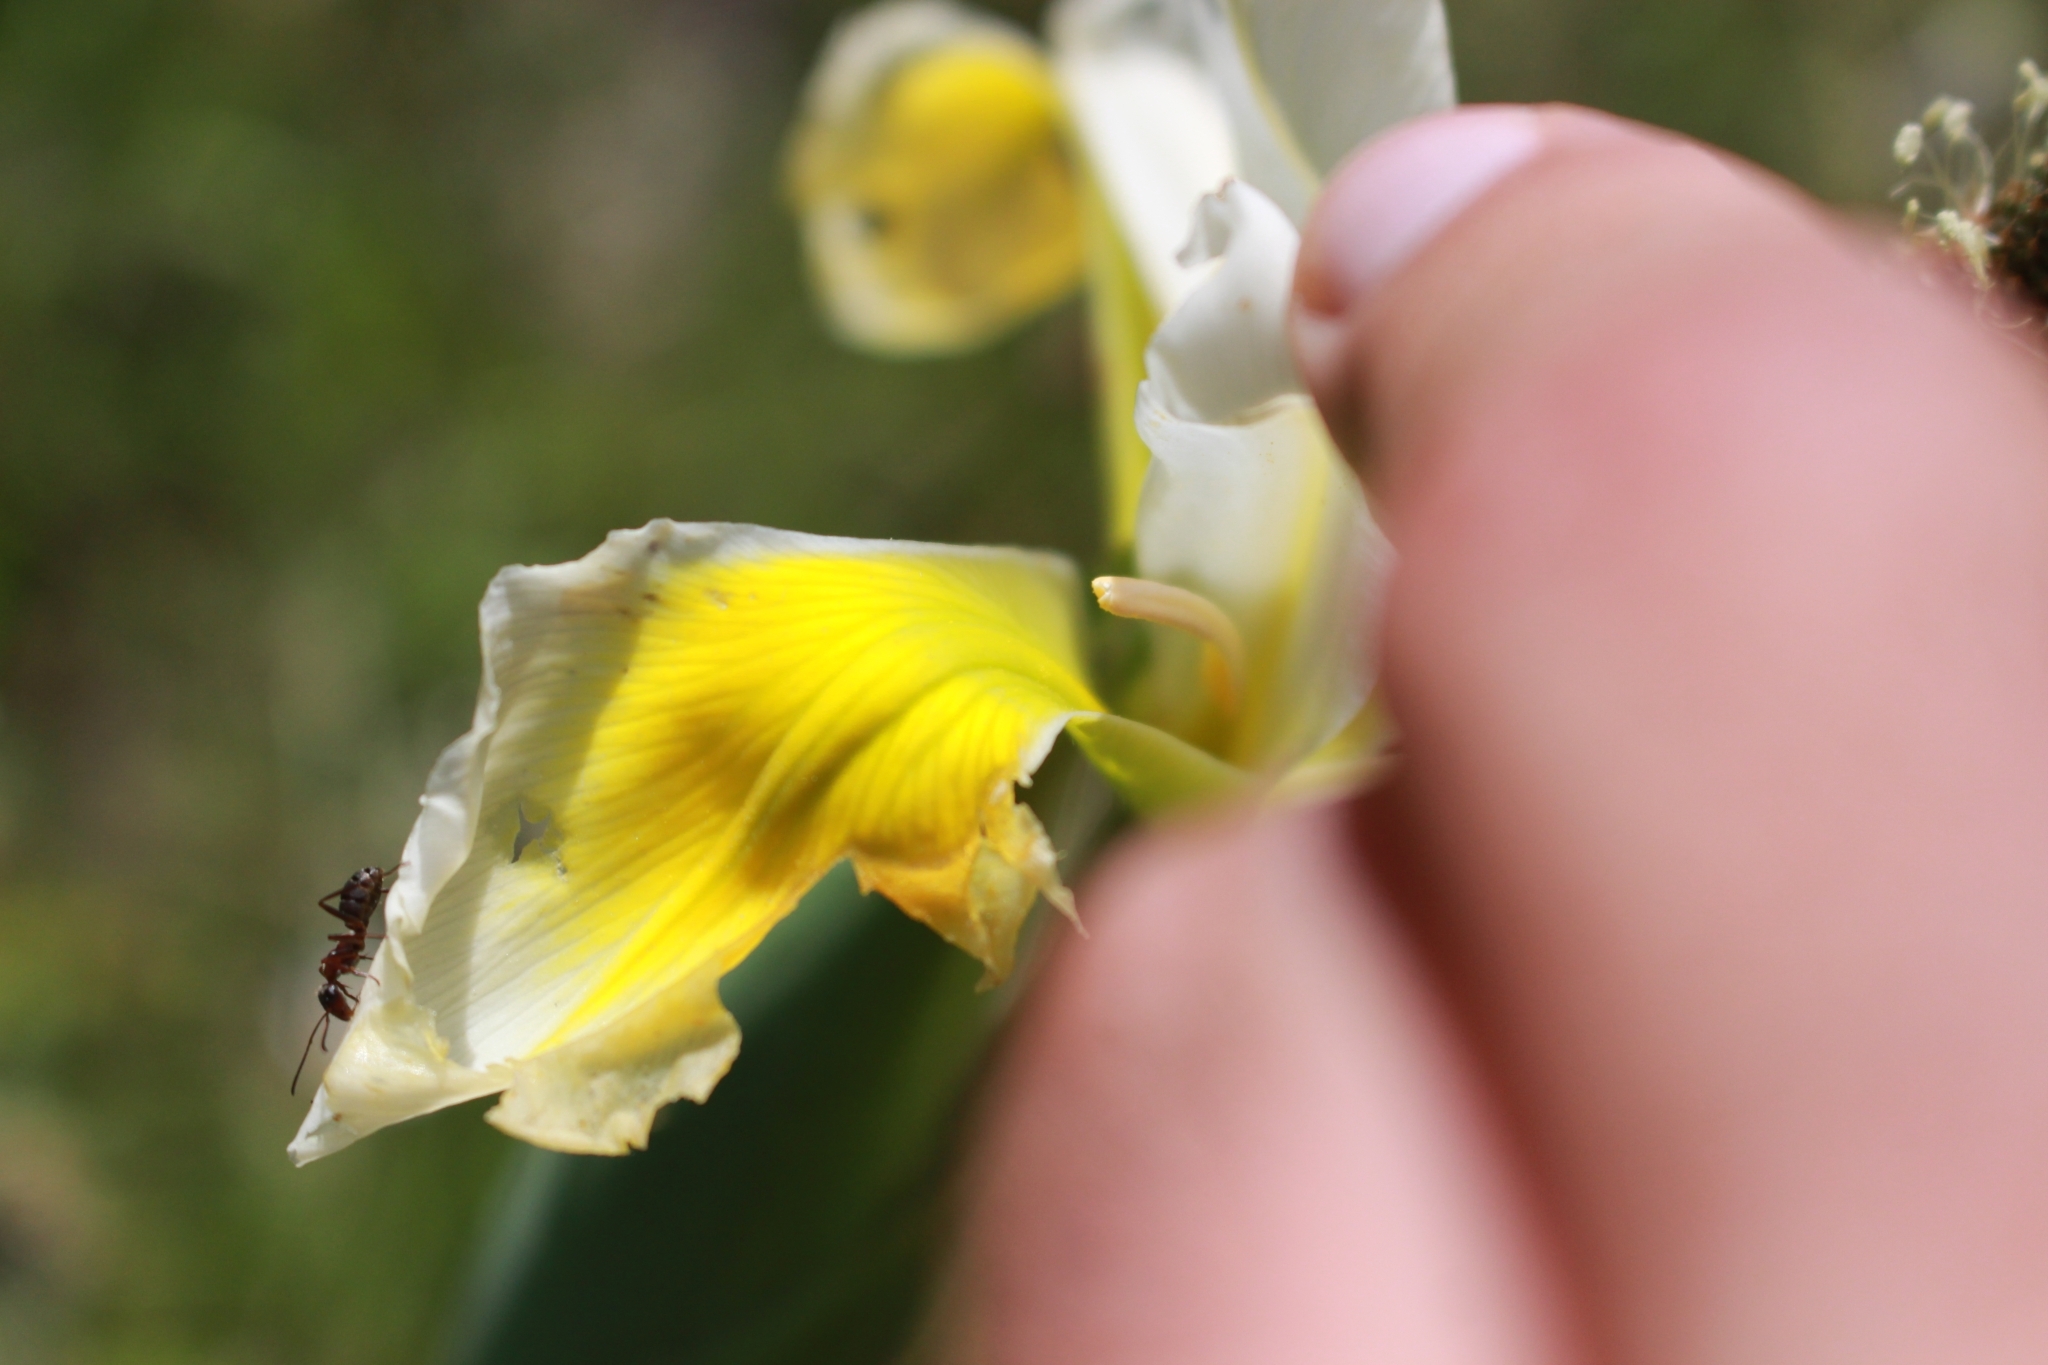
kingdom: Plantae
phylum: Tracheophyta
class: Liliopsida
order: Asparagales
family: Iridaceae
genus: Iris
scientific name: Iris orientalis
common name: Turkish iris
